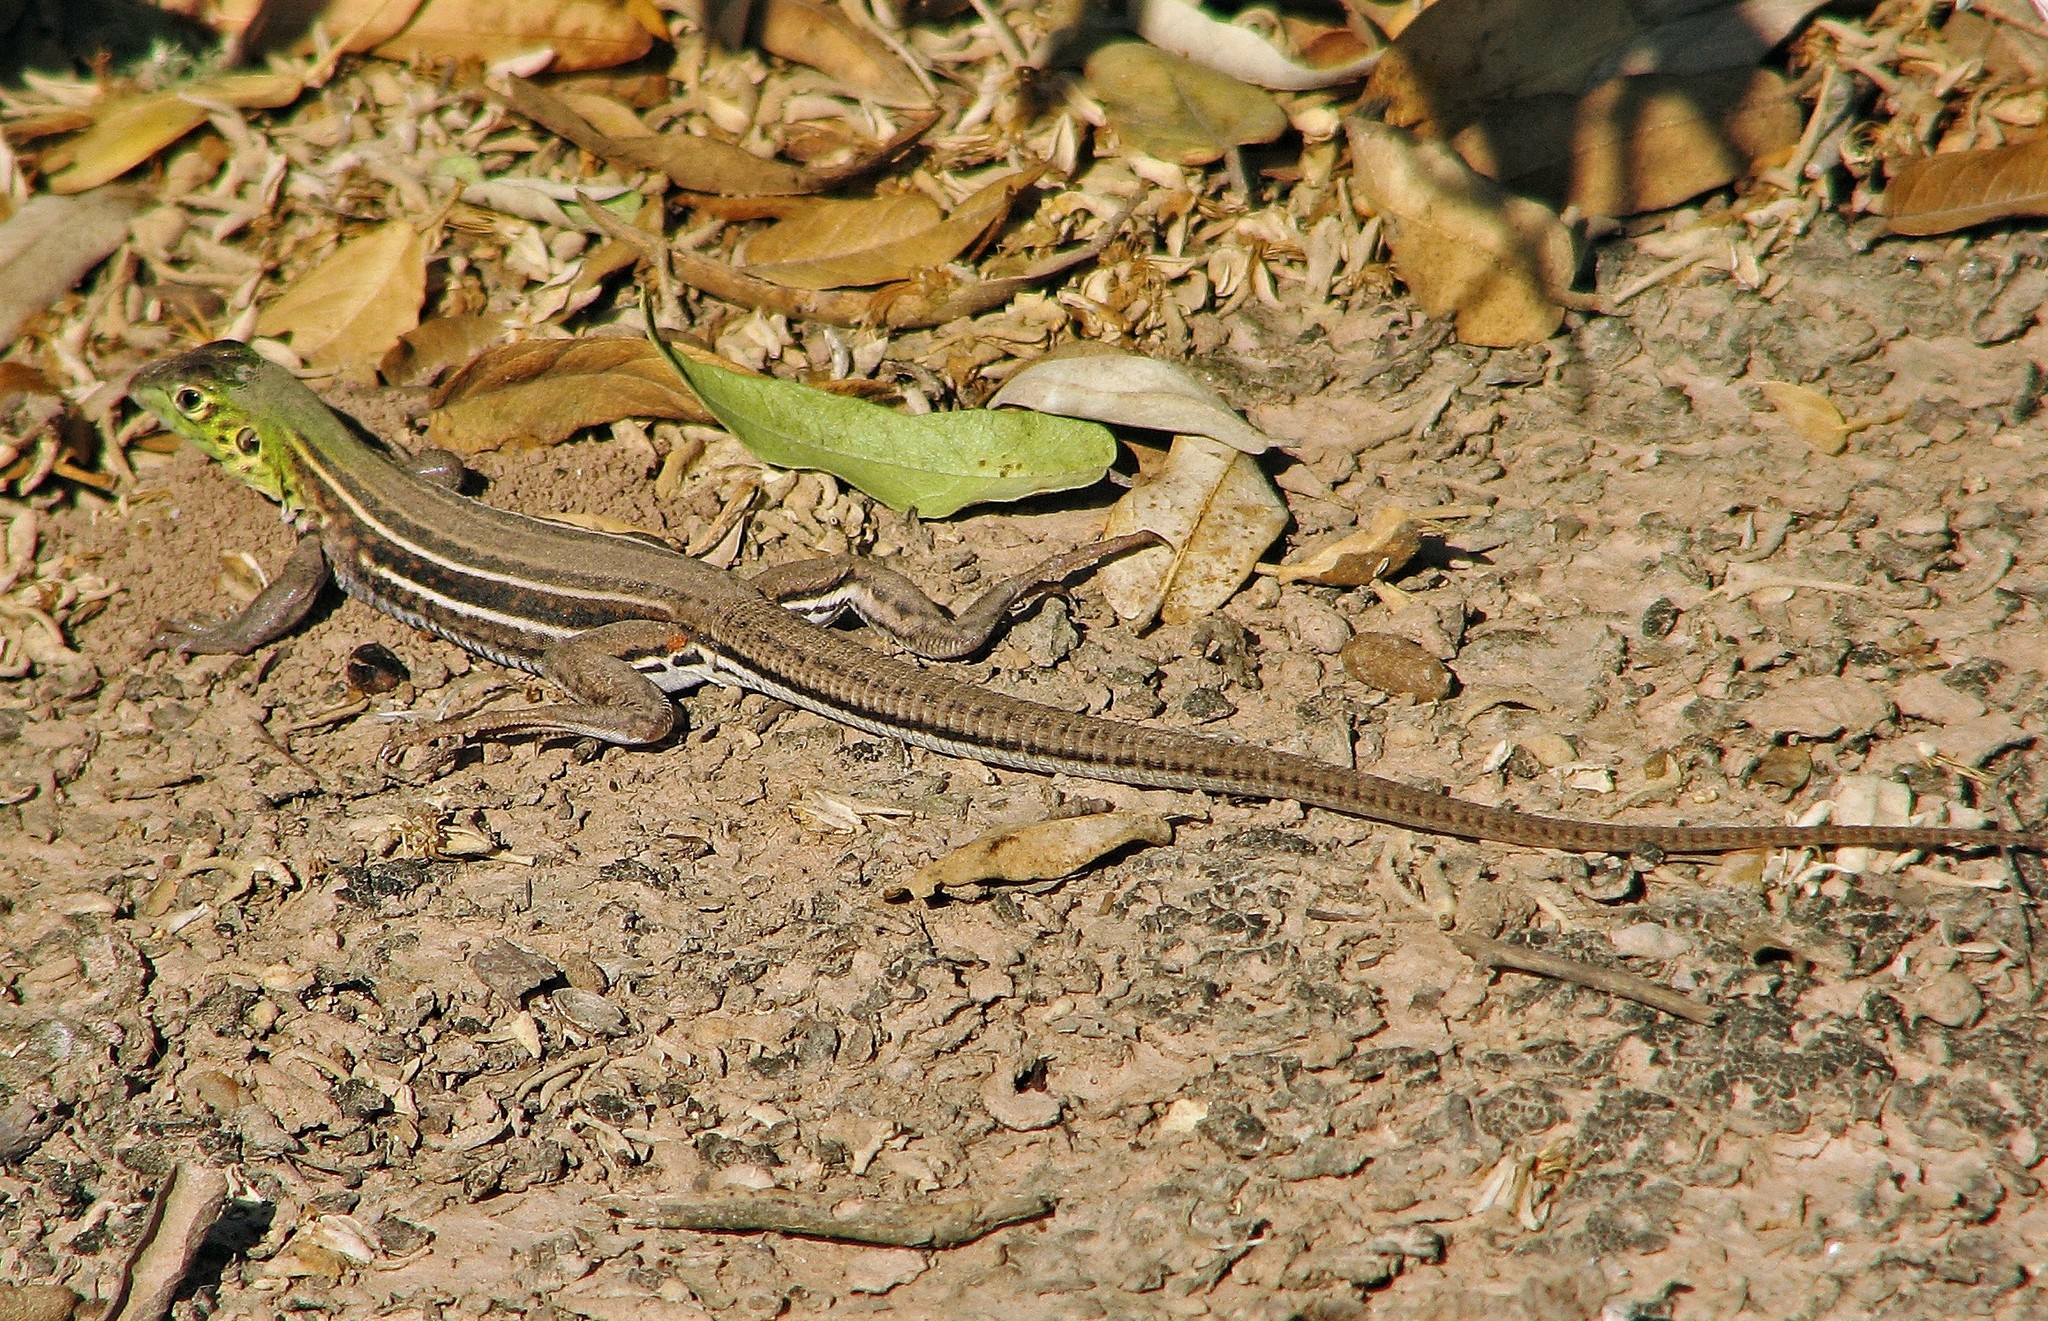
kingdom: Animalia
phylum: Chordata
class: Squamata
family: Teiidae
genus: Teius
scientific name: Teius teyou
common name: Four-toed tegu
